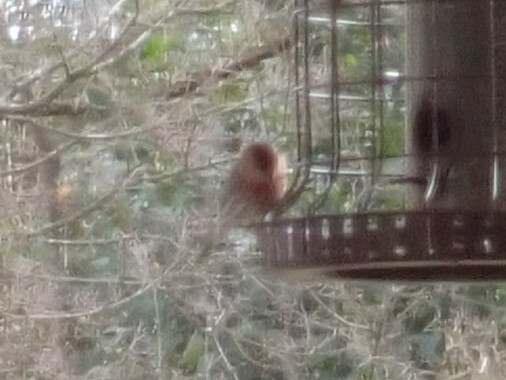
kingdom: Animalia
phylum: Chordata
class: Aves
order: Passeriformes
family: Fringillidae
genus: Haemorhous
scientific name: Haemorhous mexicanus
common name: House finch
